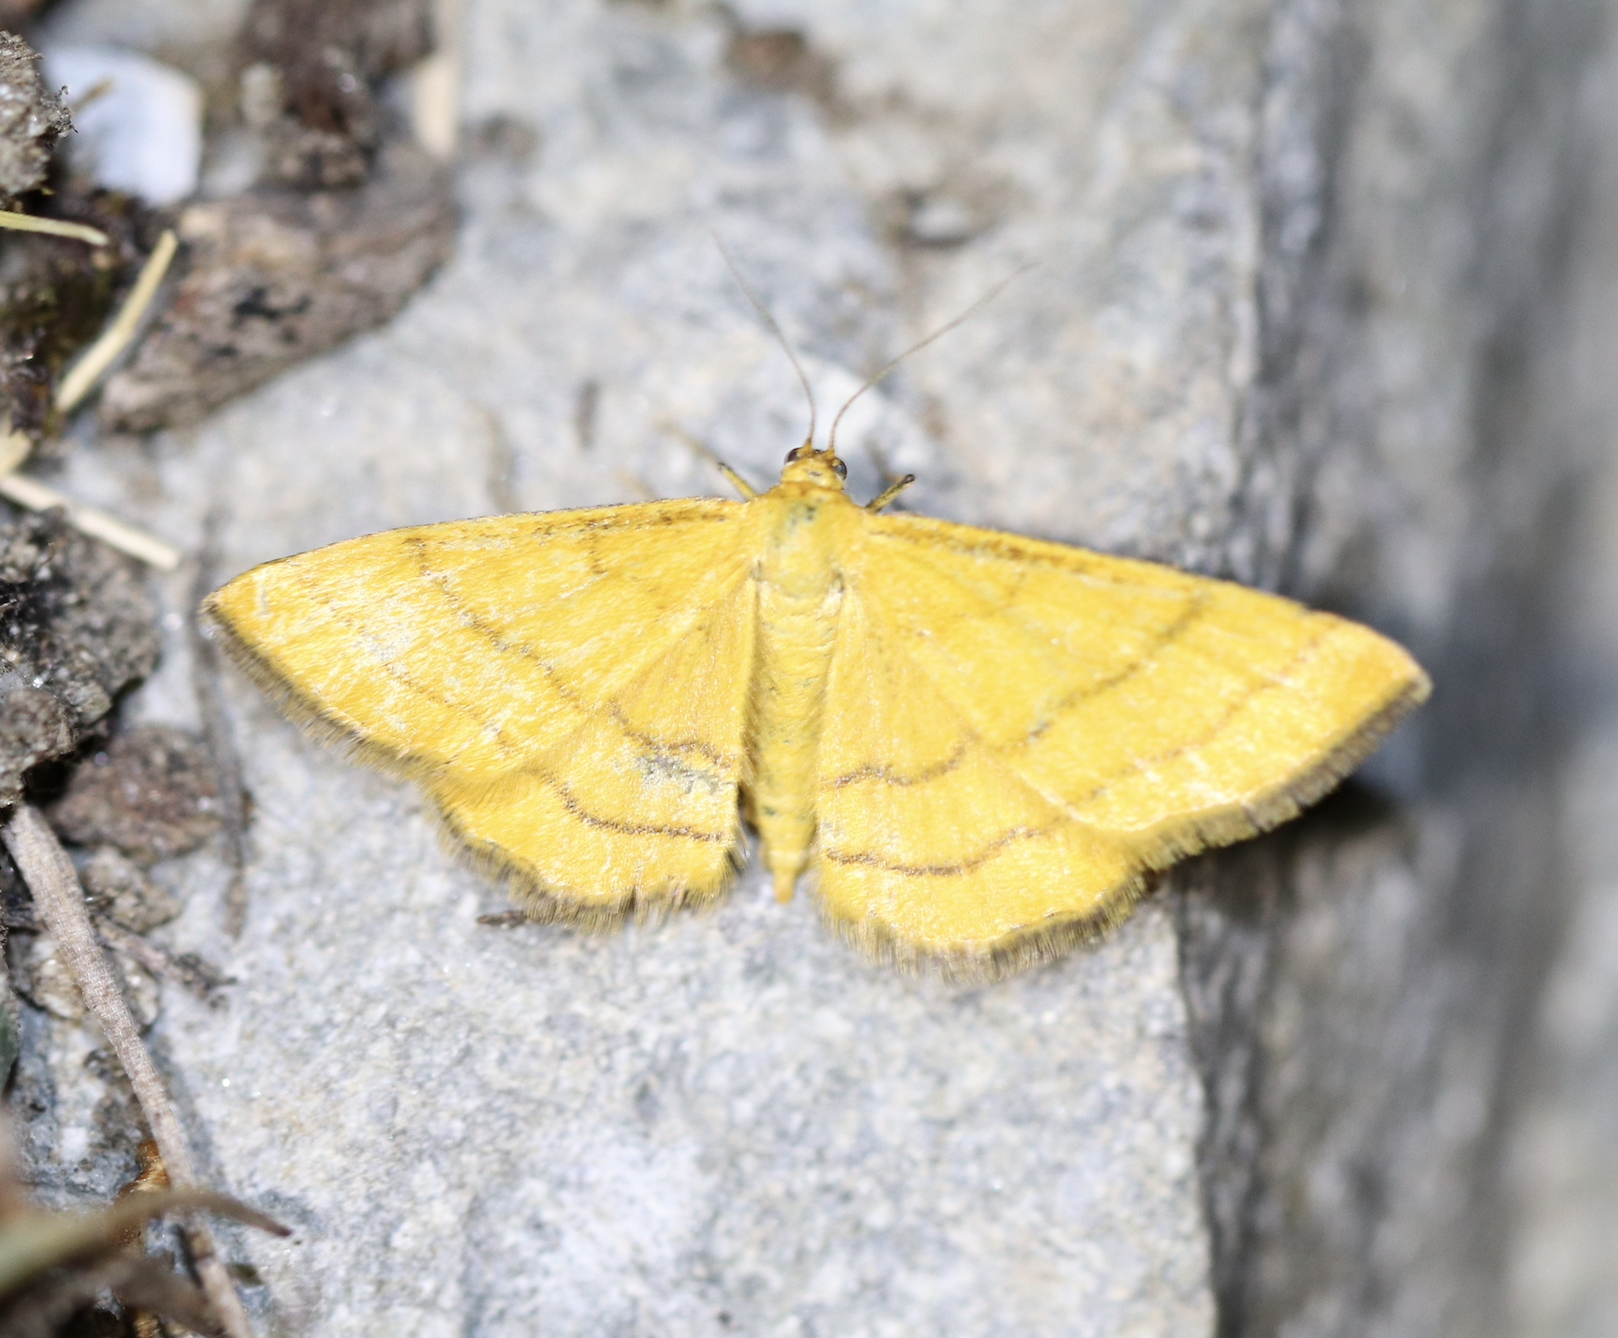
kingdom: Animalia
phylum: Arthropoda
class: Insecta
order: Lepidoptera
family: Geometridae
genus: Idaea
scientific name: Idaea aureolaria
